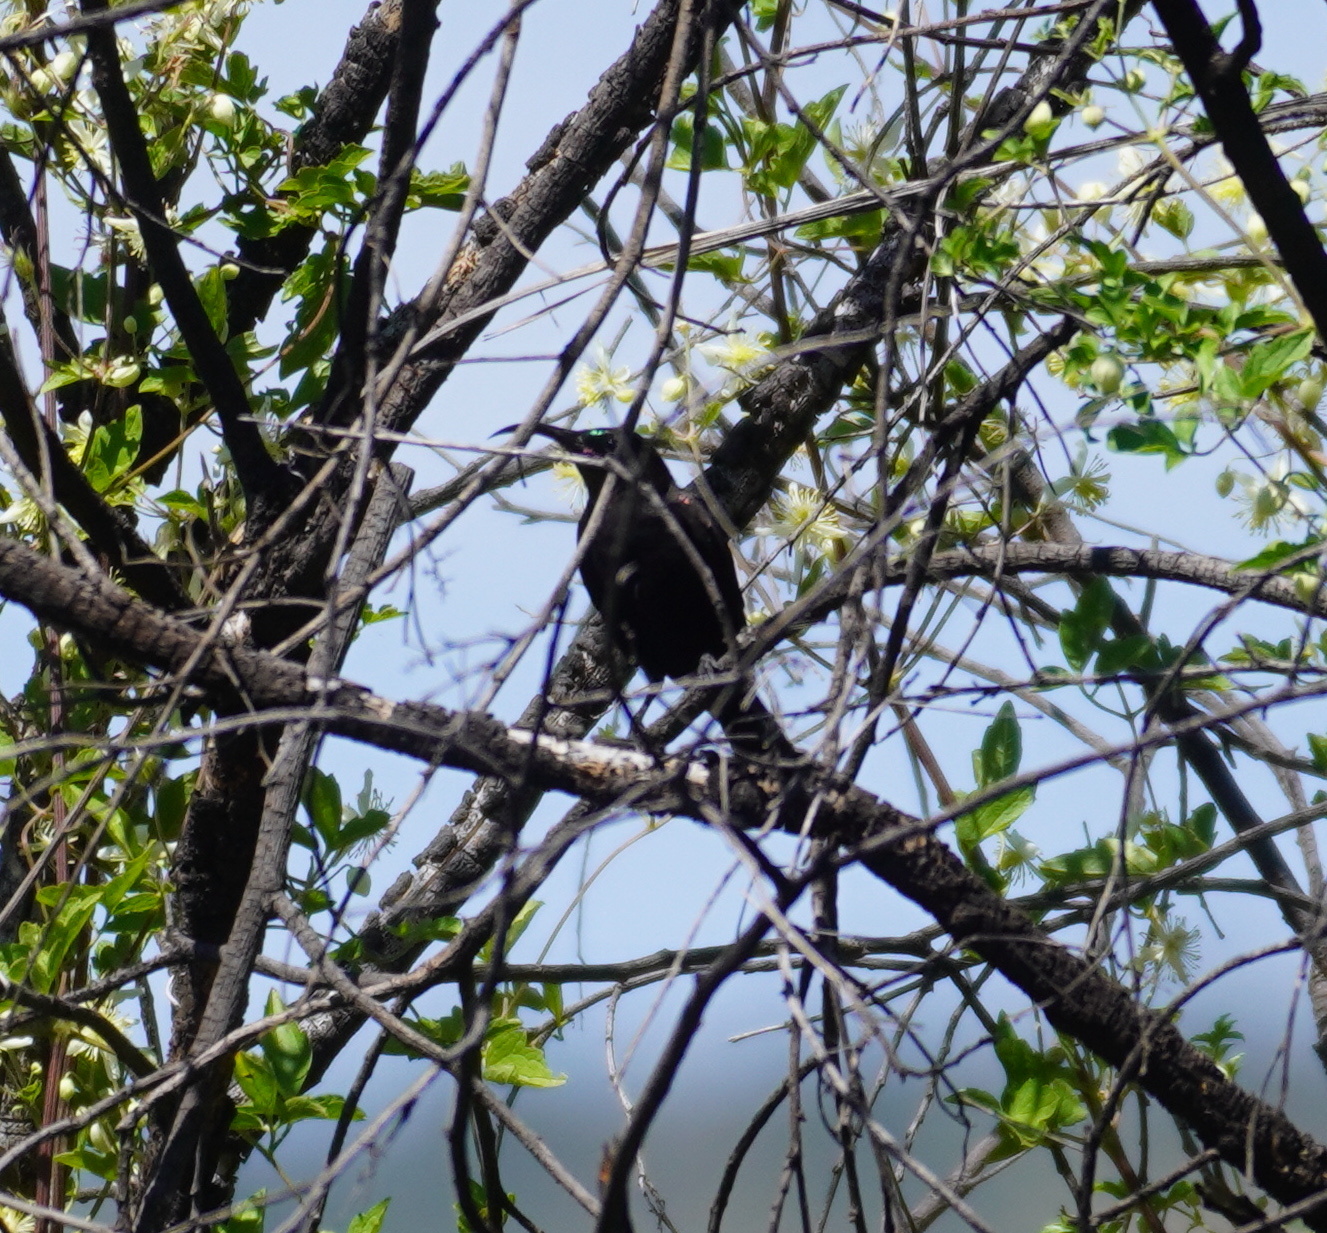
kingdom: Animalia
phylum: Chordata
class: Aves
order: Passeriformes
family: Nectariniidae
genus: Chalcomitra
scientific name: Chalcomitra amethystina
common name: Amethyst sunbird
